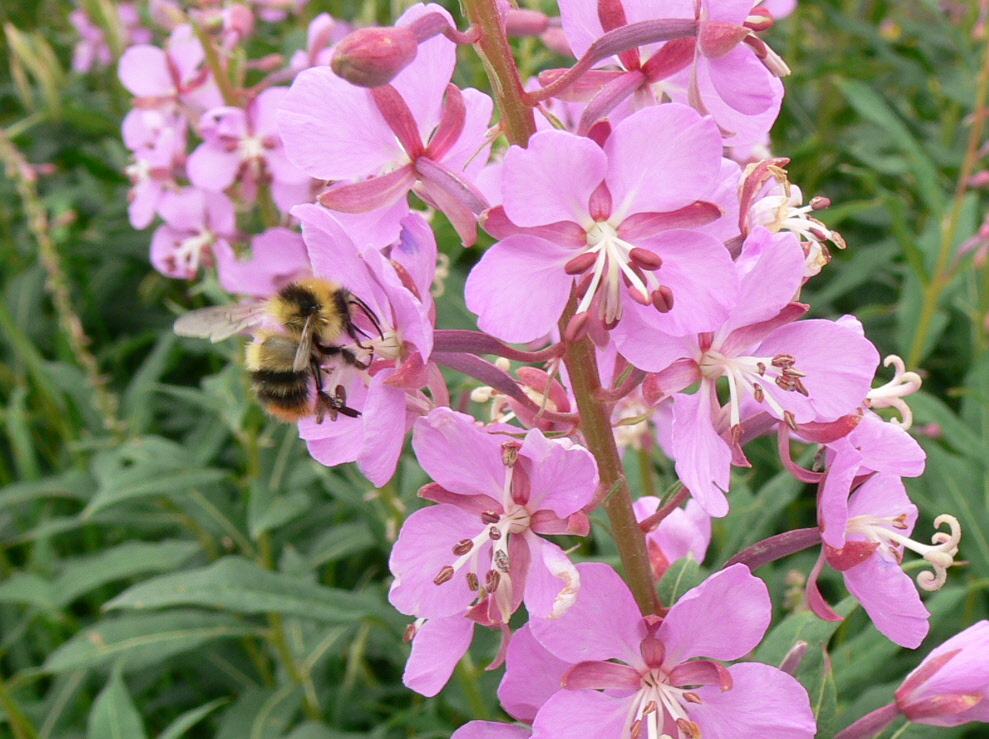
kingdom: Animalia
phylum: Arthropoda
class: Insecta
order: Hymenoptera
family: Apidae
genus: Bombus
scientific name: Bombus kirbiellus
